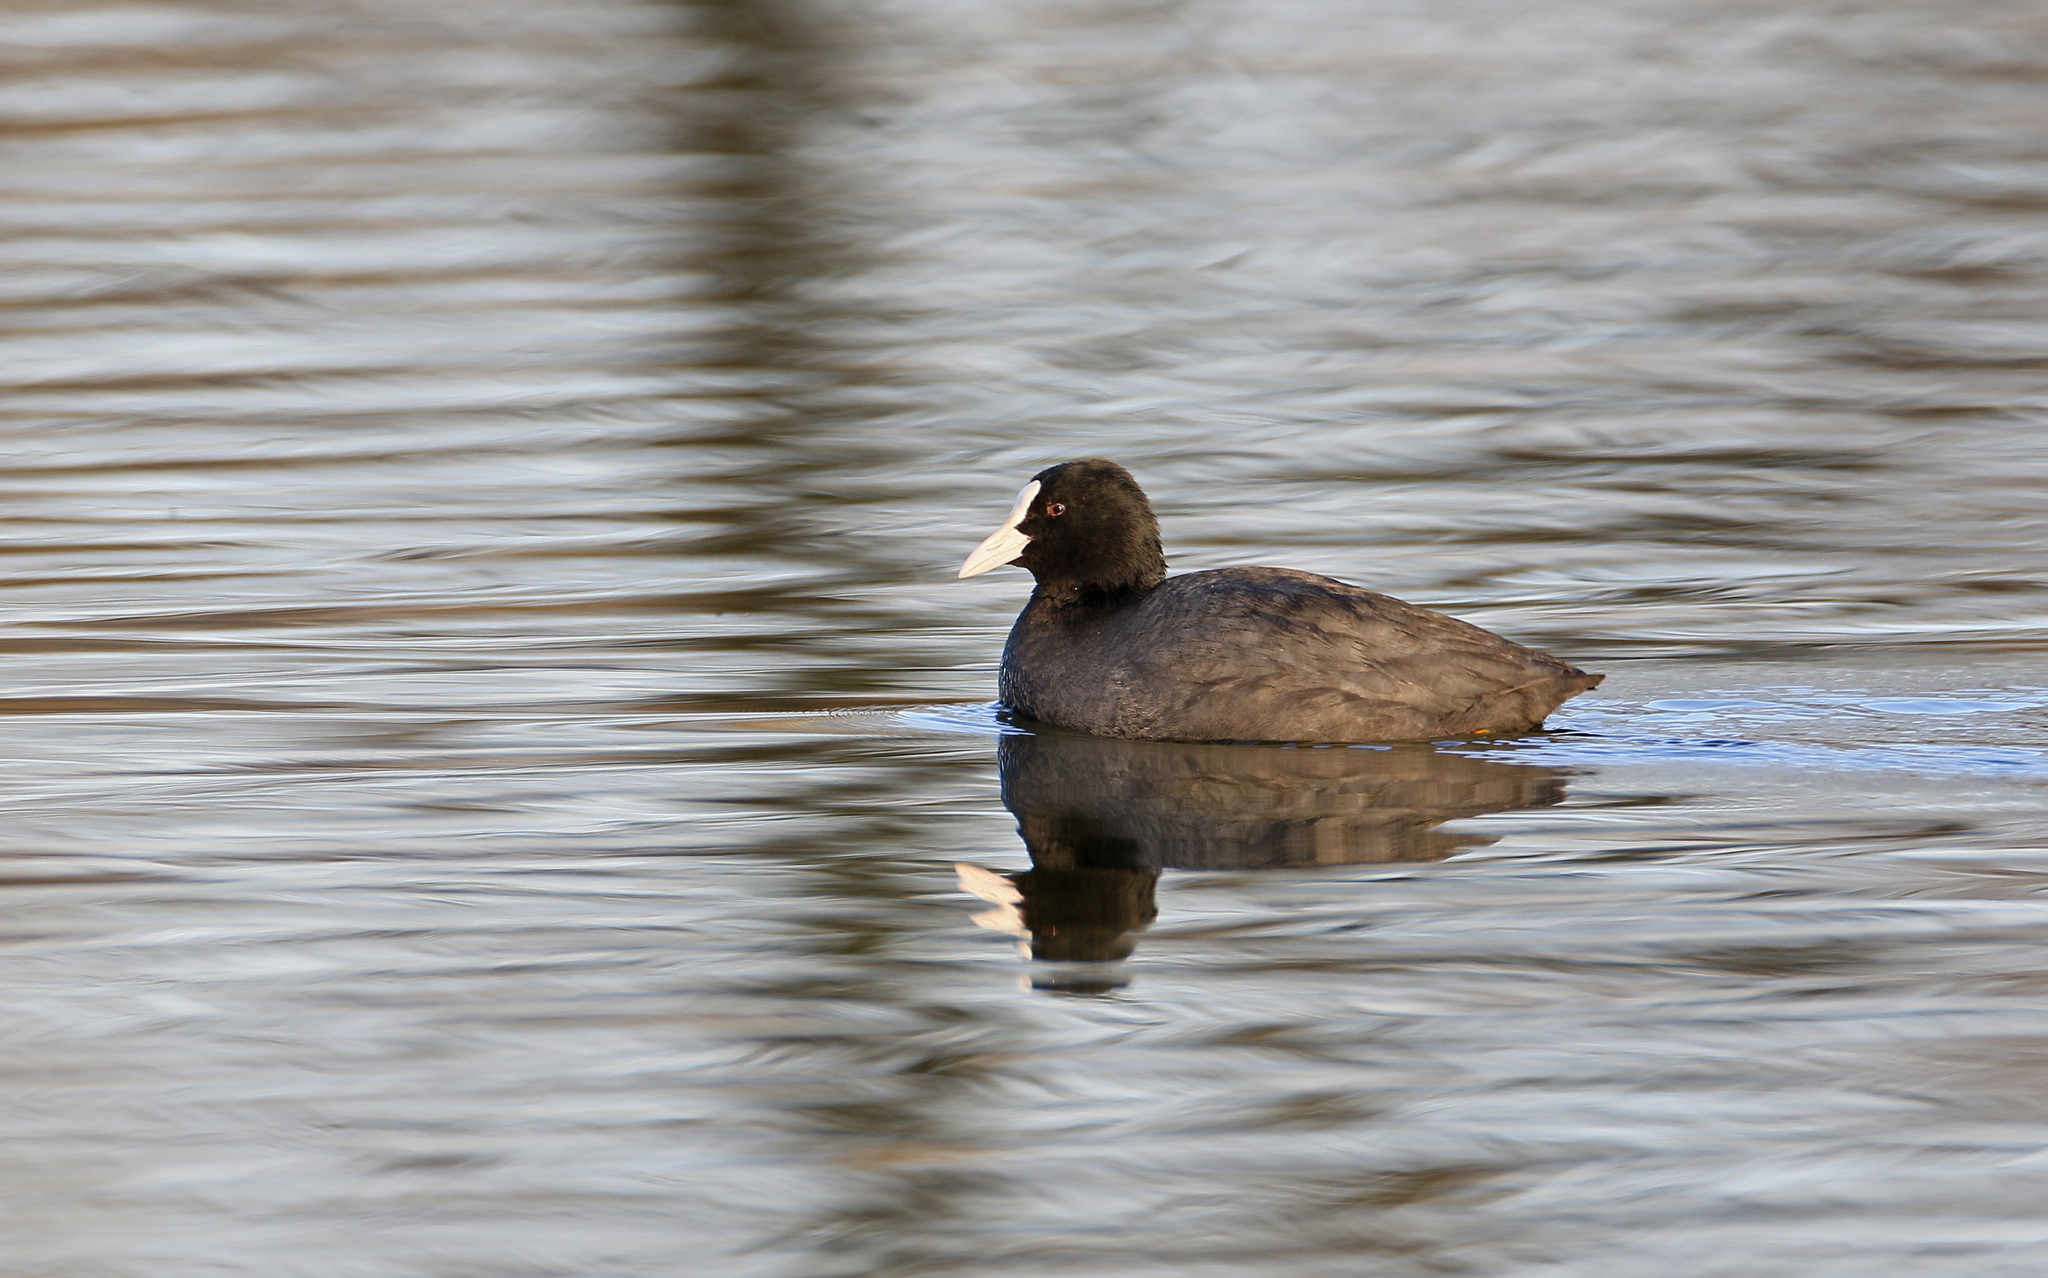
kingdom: Animalia
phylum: Chordata
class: Aves
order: Gruiformes
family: Rallidae
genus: Fulica
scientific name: Fulica atra
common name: Eurasian coot
